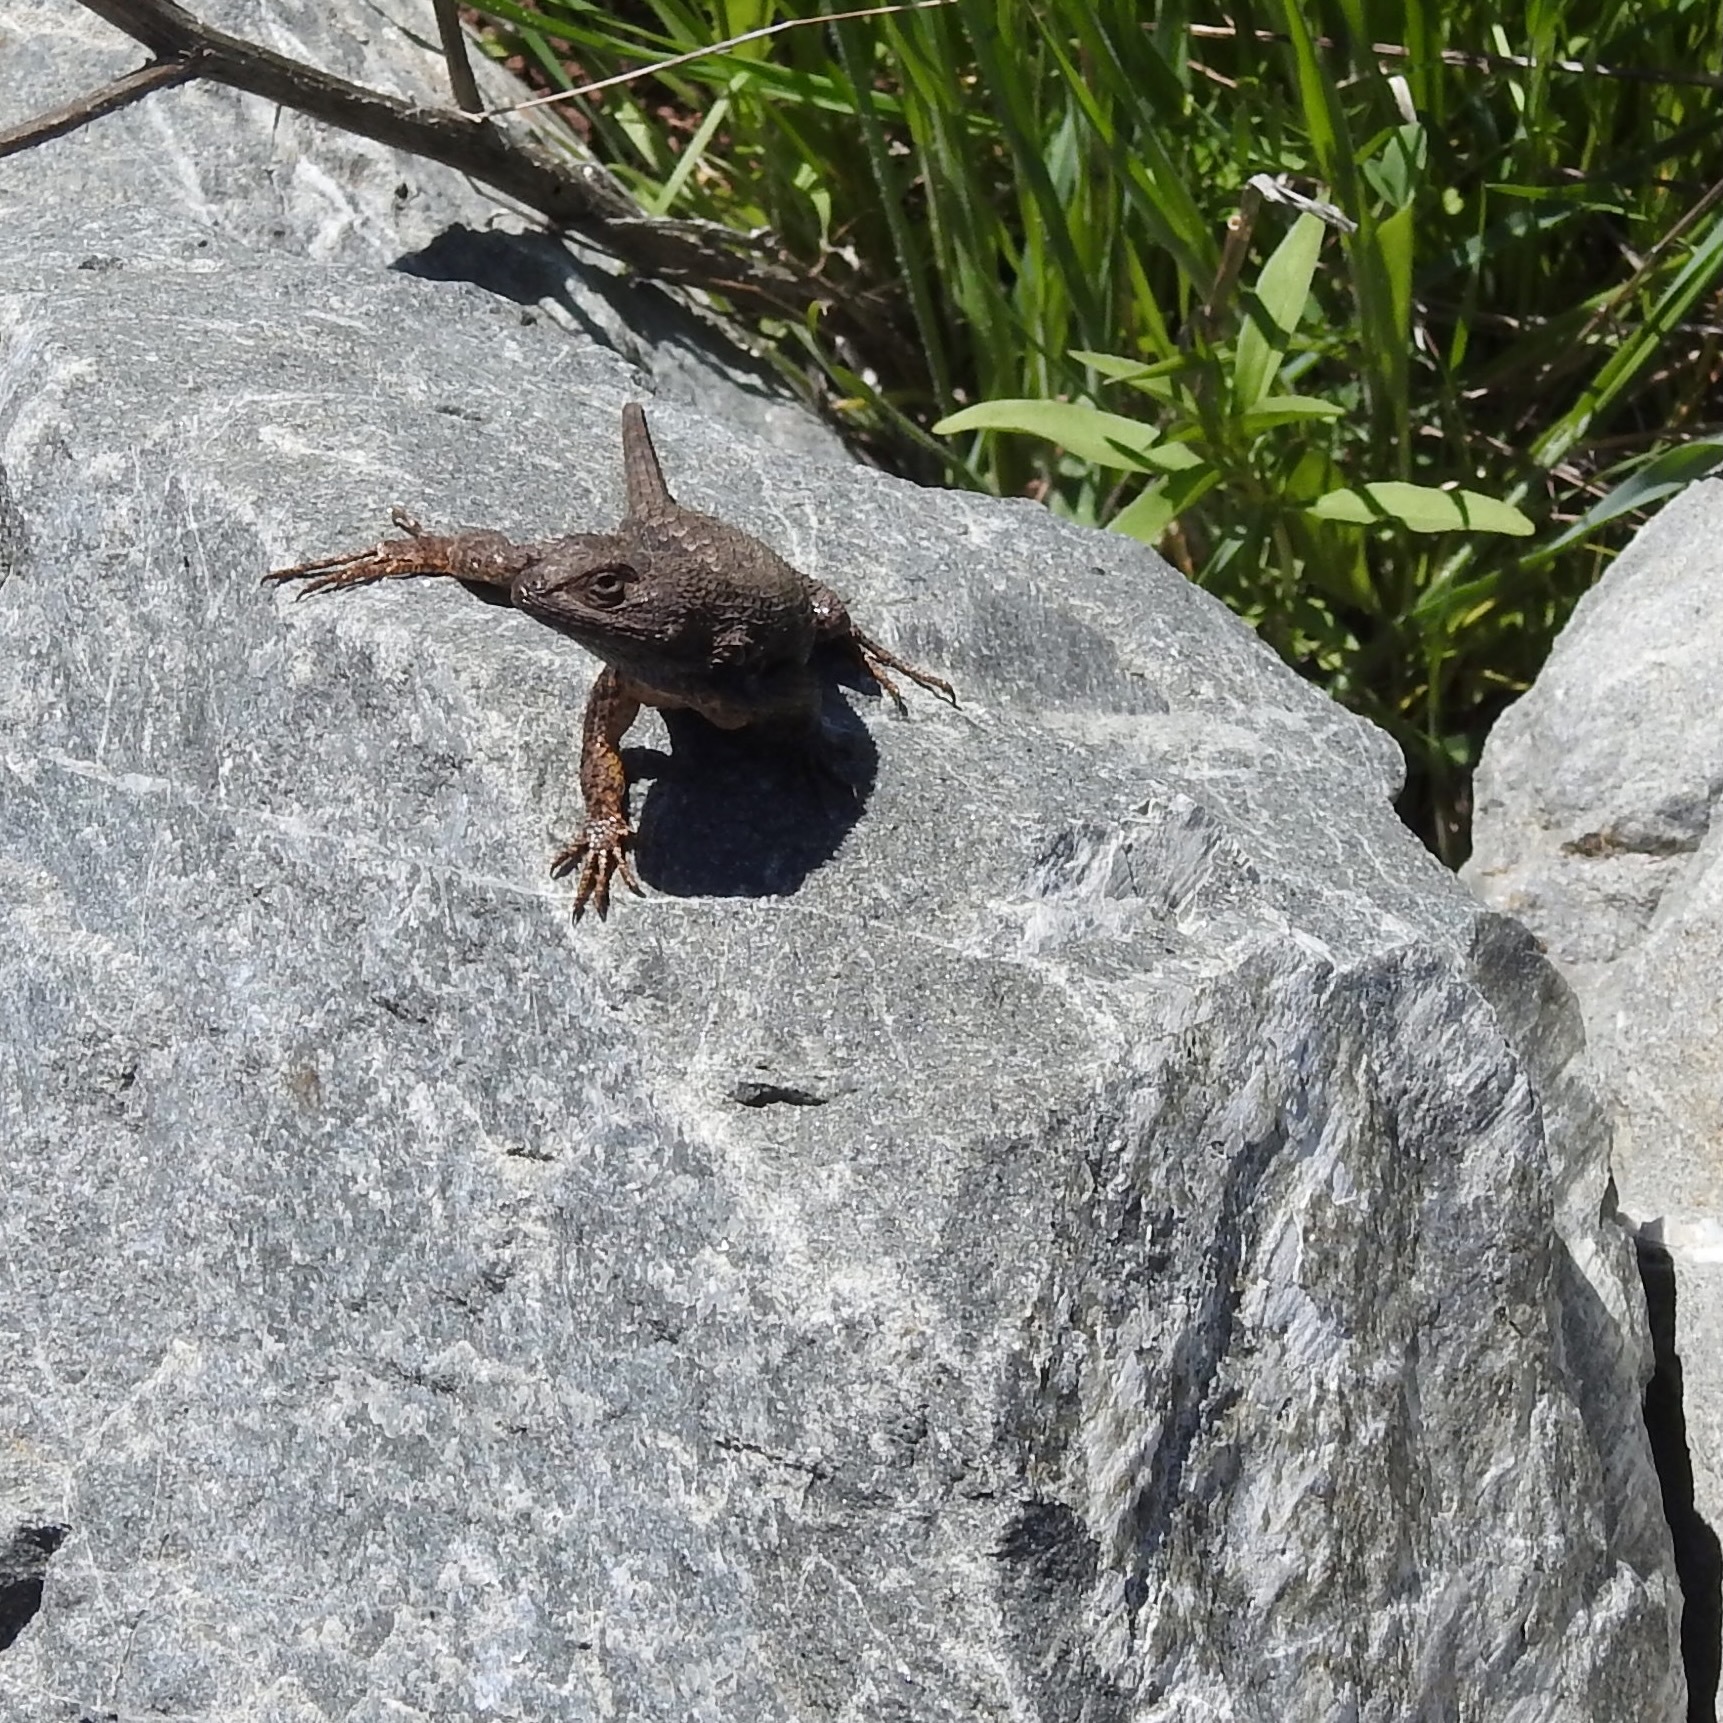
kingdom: Animalia
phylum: Chordata
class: Squamata
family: Phrynosomatidae
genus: Sceloporus
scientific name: Sceloporus occidentalis
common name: Western fence lizard
